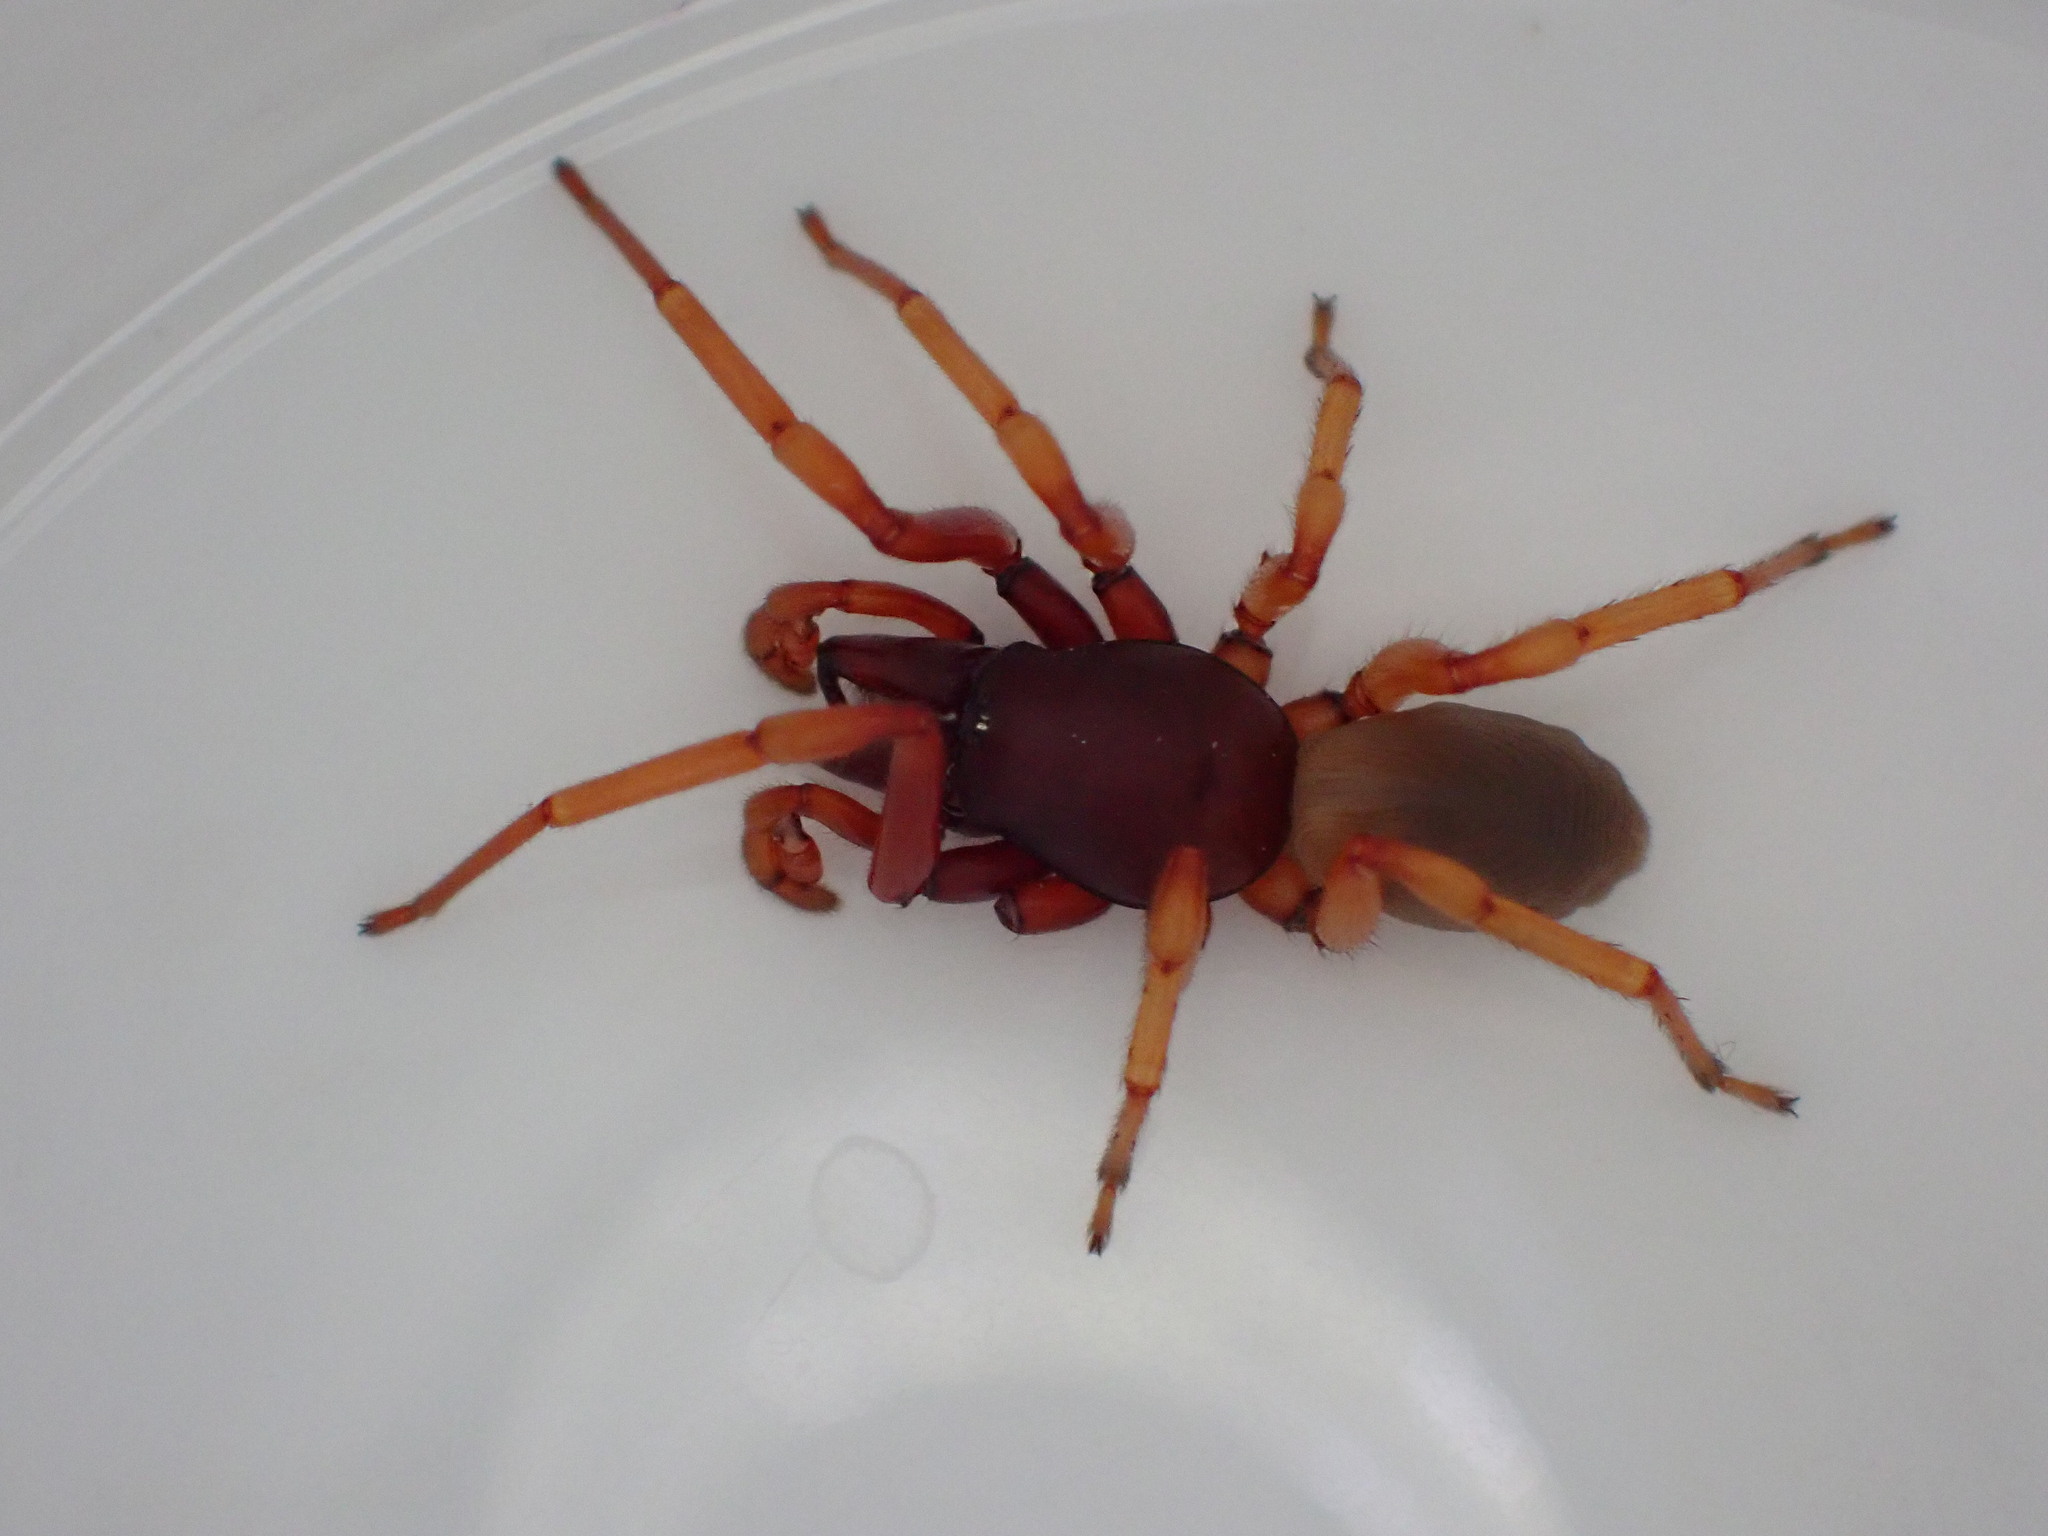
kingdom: Animalia
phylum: Arthropoda
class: Arachnida
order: Araneae
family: Dysderidae
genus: Dysdera
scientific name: Dysdera crocata
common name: Woodlouse spider
